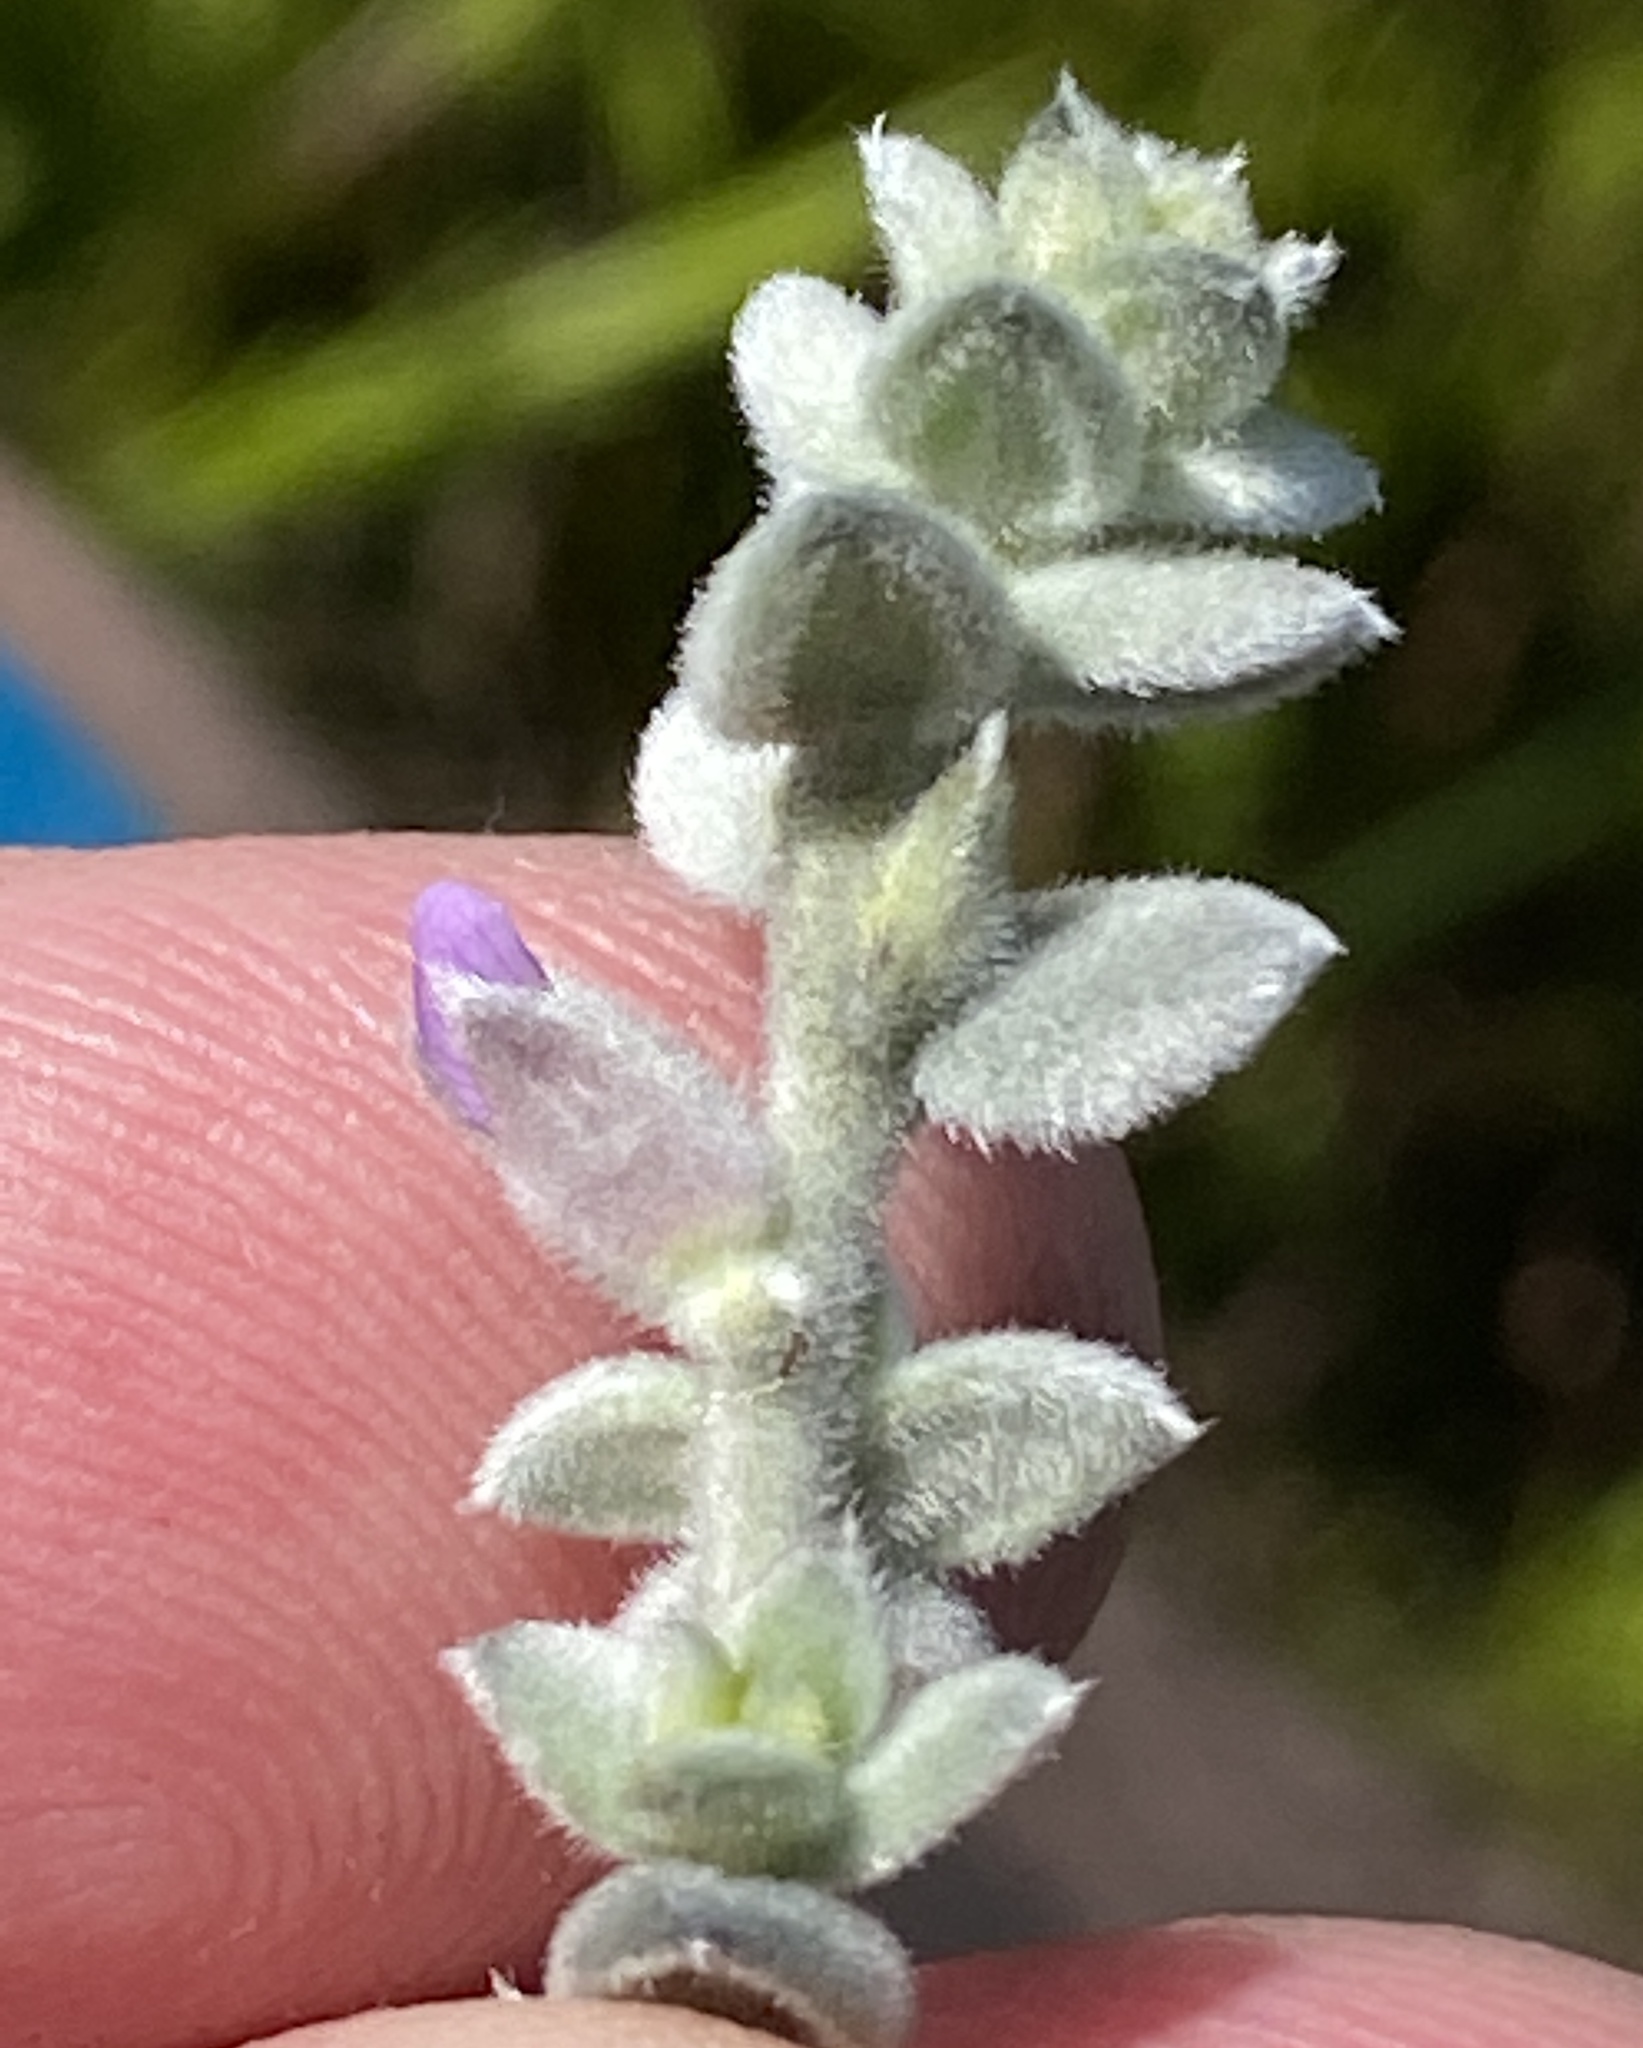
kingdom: Plantae
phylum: Tracheophyta
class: Magnoliopsida
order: Fabales
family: Fabaceae
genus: Amphithalea
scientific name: Amphithalea phylicoides
